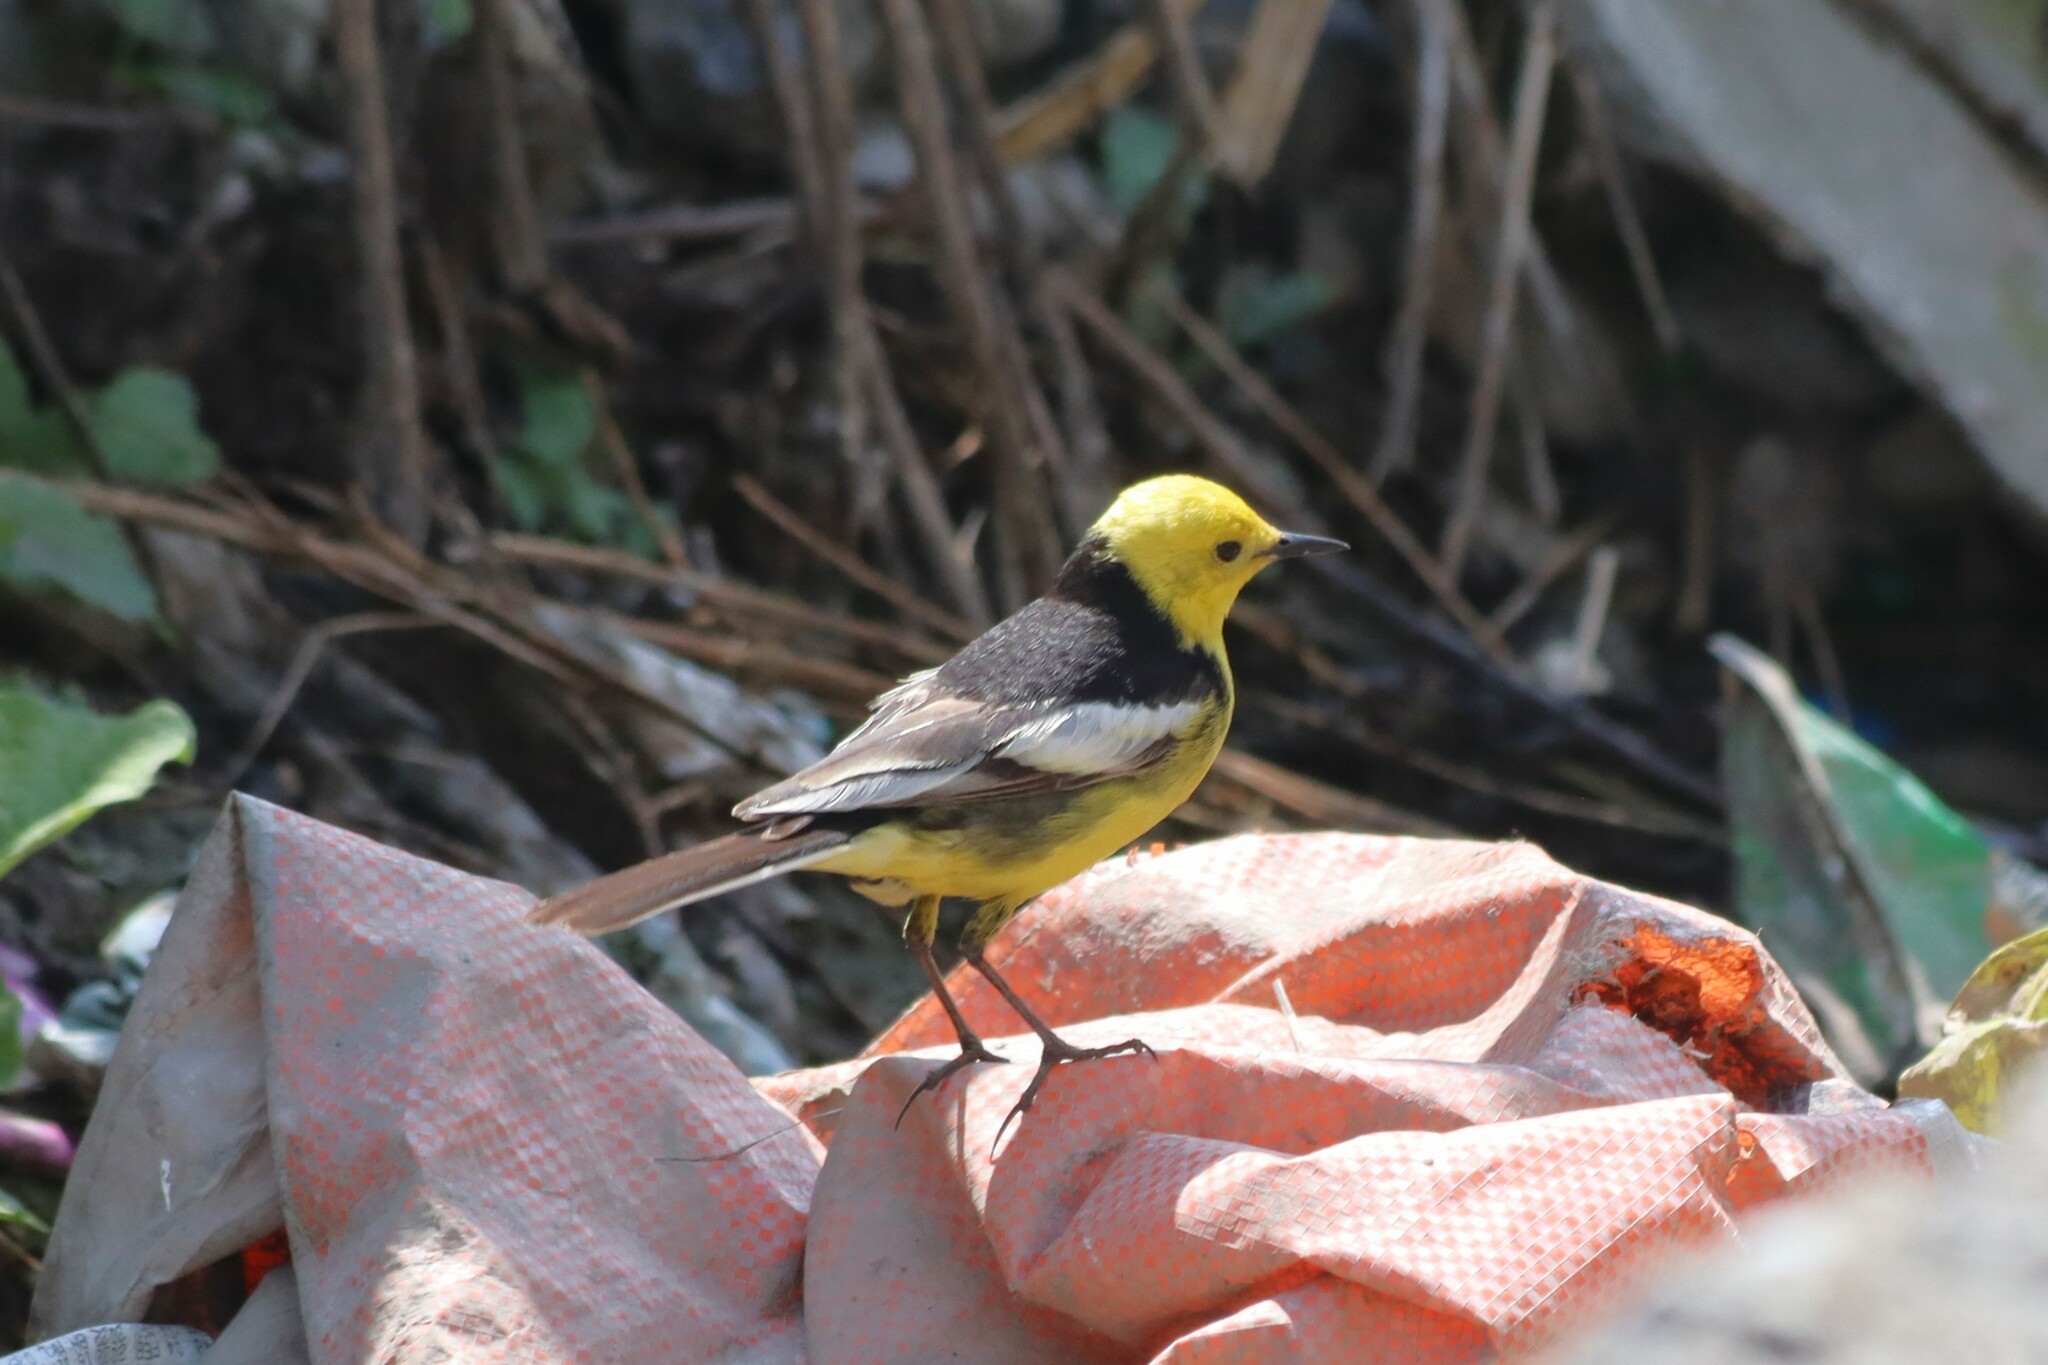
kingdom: Animalia
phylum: Chordata
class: Aves
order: Passeriformes
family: Motacillidae
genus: Motacilla
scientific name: Motacilla citreola
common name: Citrine wagtail
